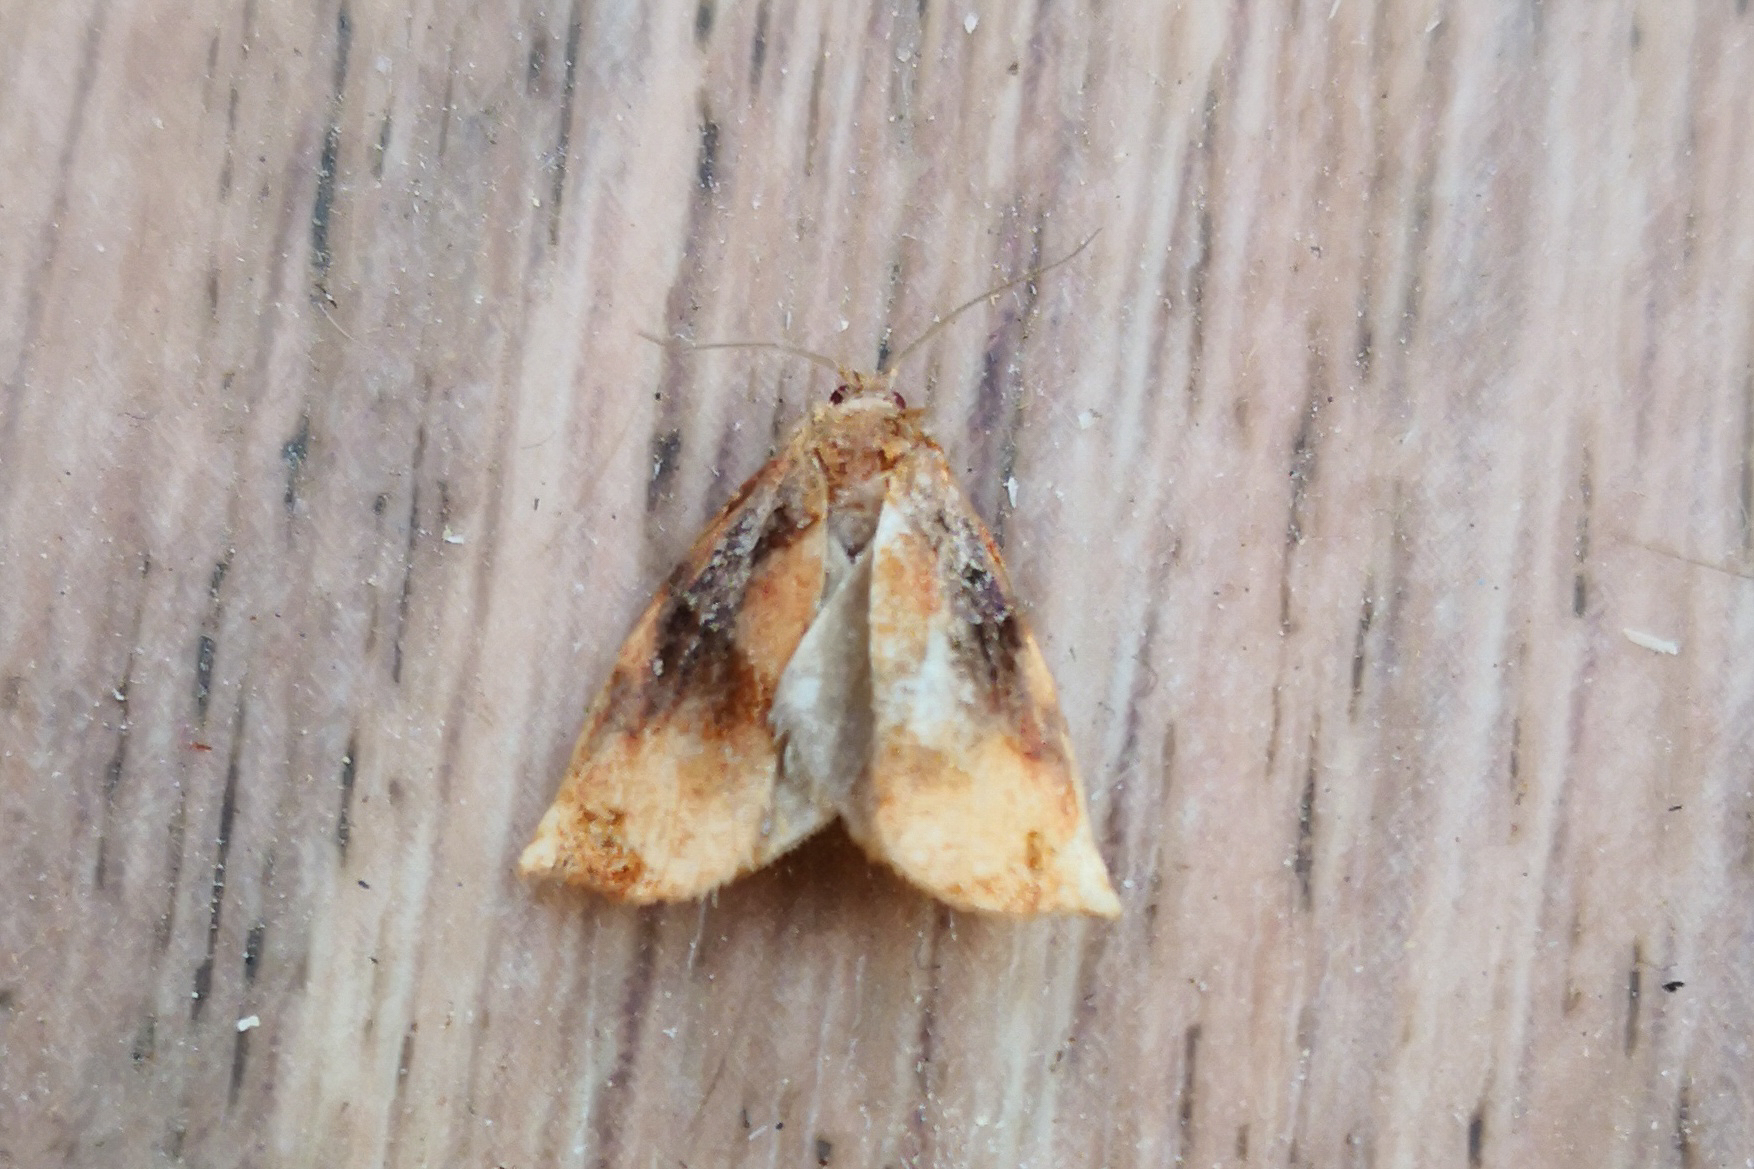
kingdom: Animalia
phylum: Arthropoda
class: Insecta
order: Lepidoptera
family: Tortricidae
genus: Archips
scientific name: Archips podana
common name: Large fruit-tree tortrix
